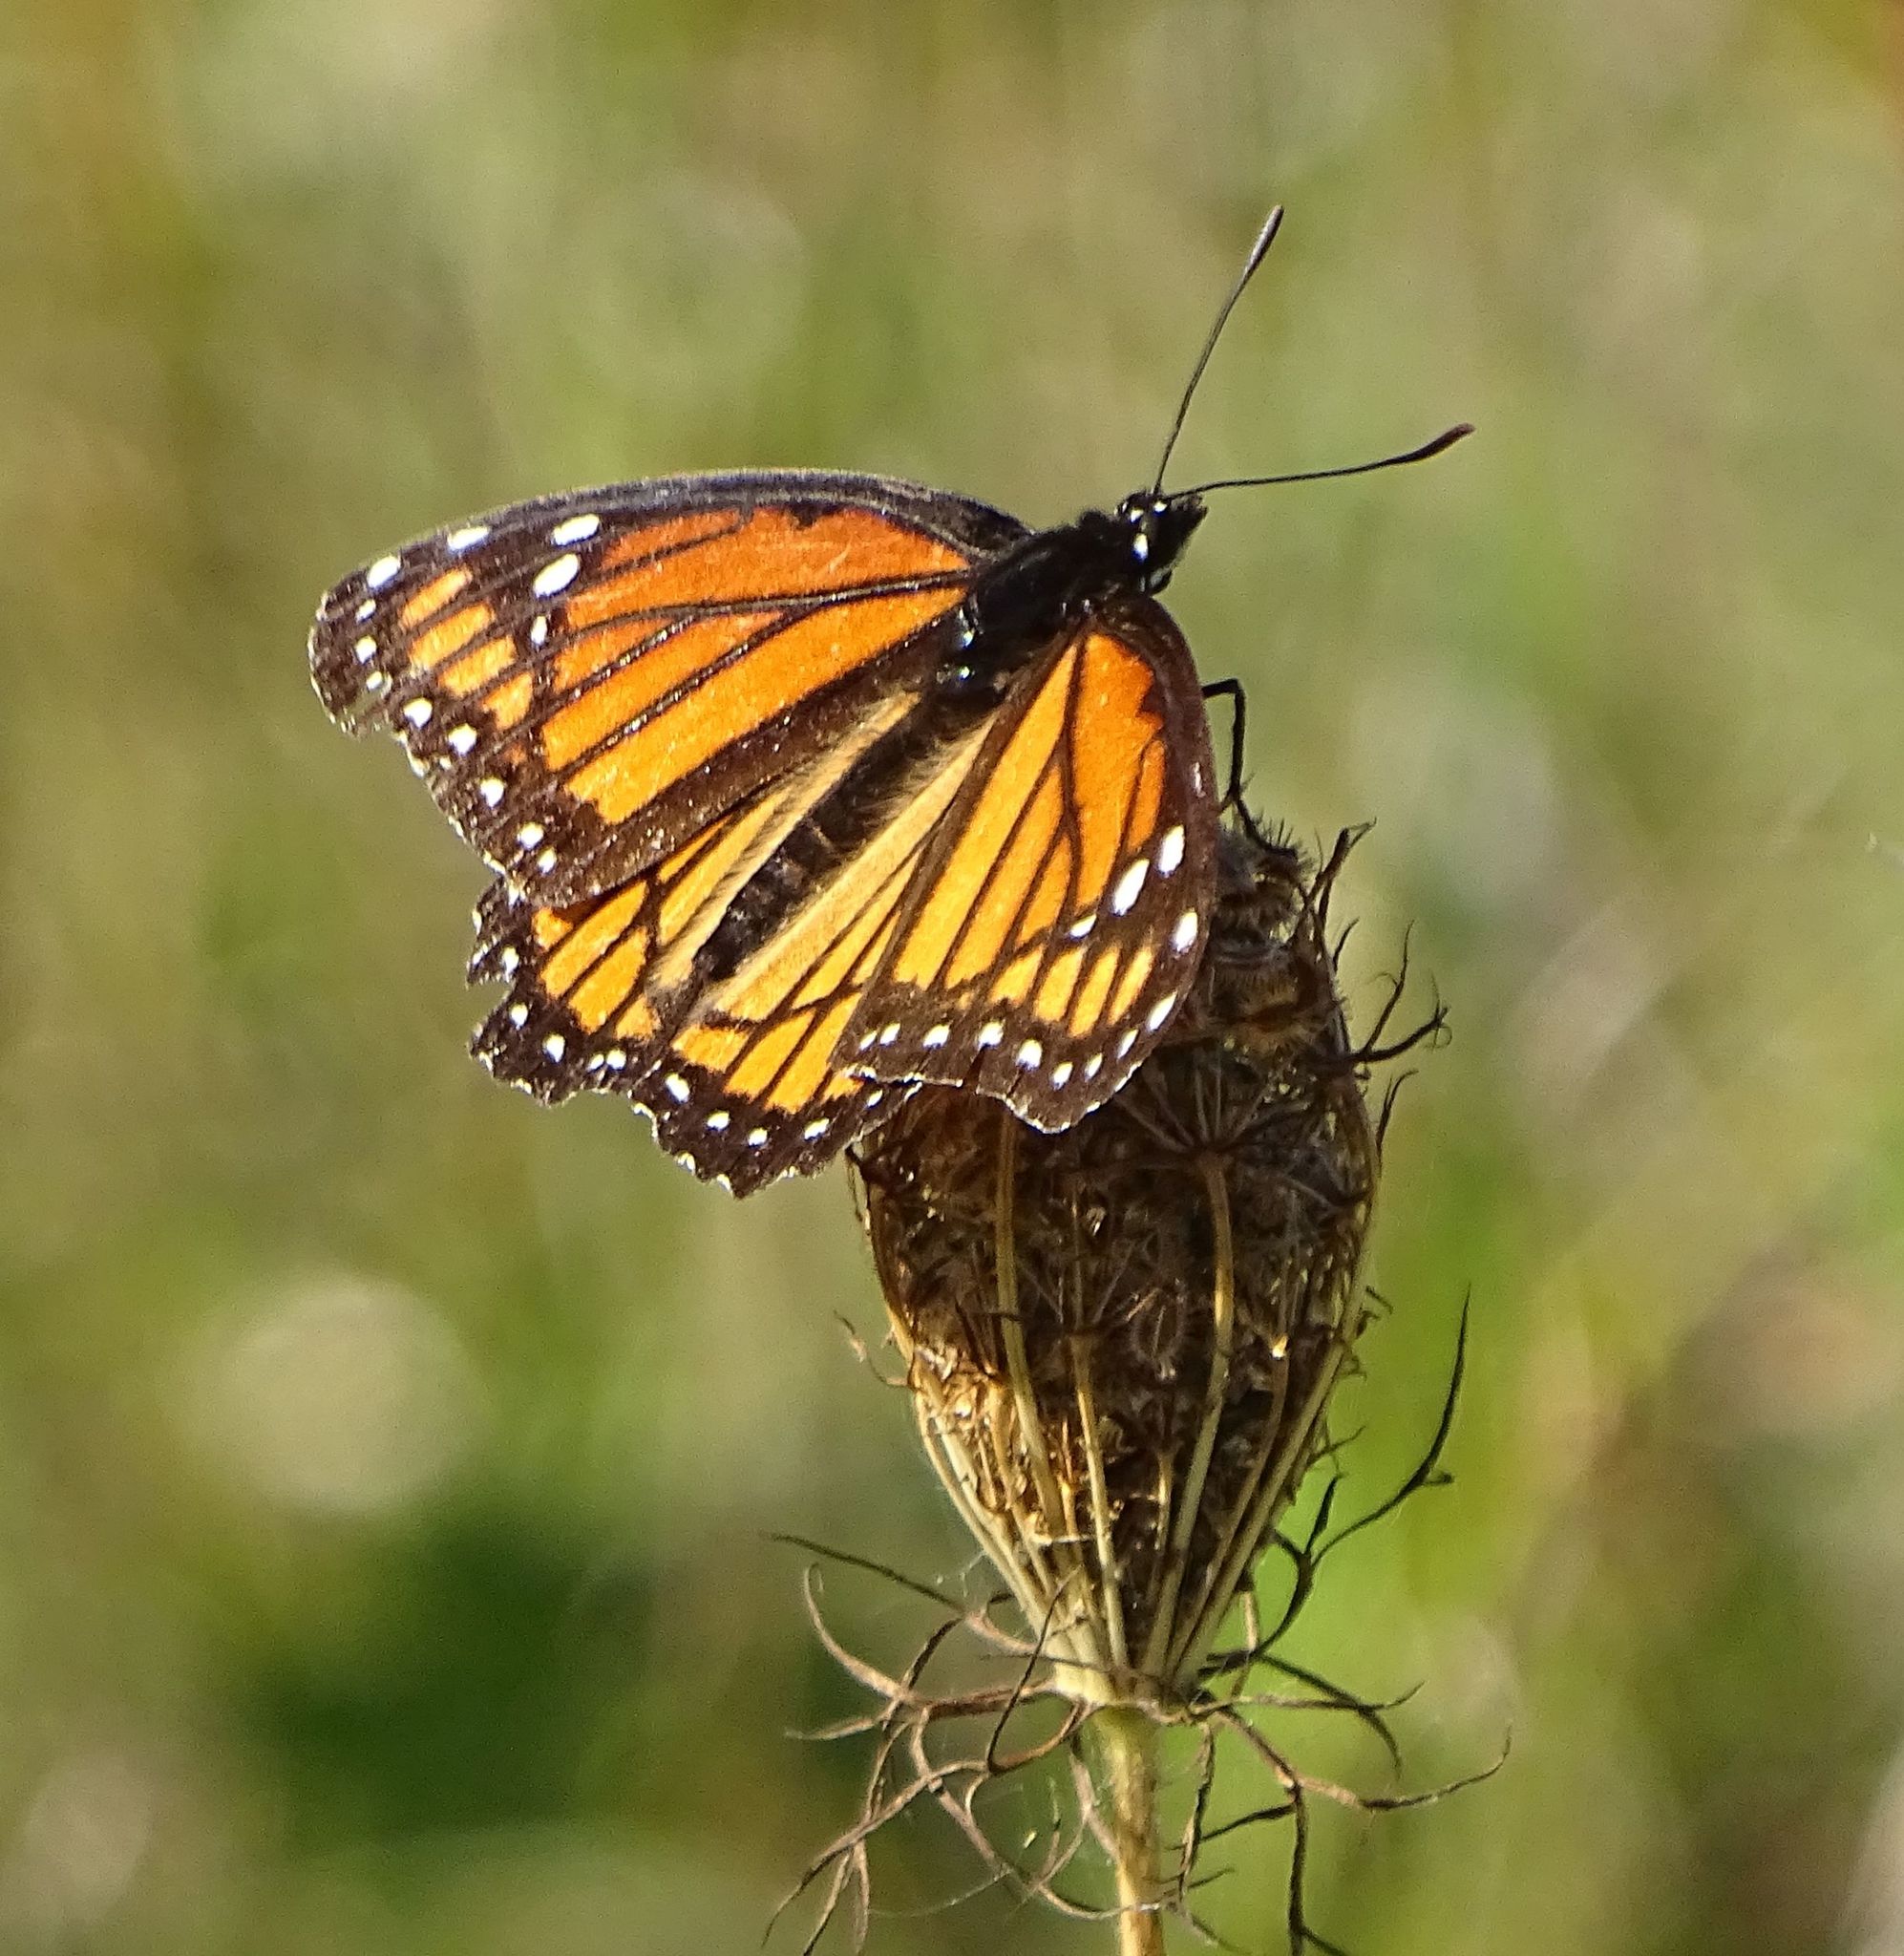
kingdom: Animalia
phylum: Arthropoda
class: Insecta
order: Lepidoptera
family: Nymphalidae
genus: Limenitis
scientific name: Limenitis archippus
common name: Viceroy
